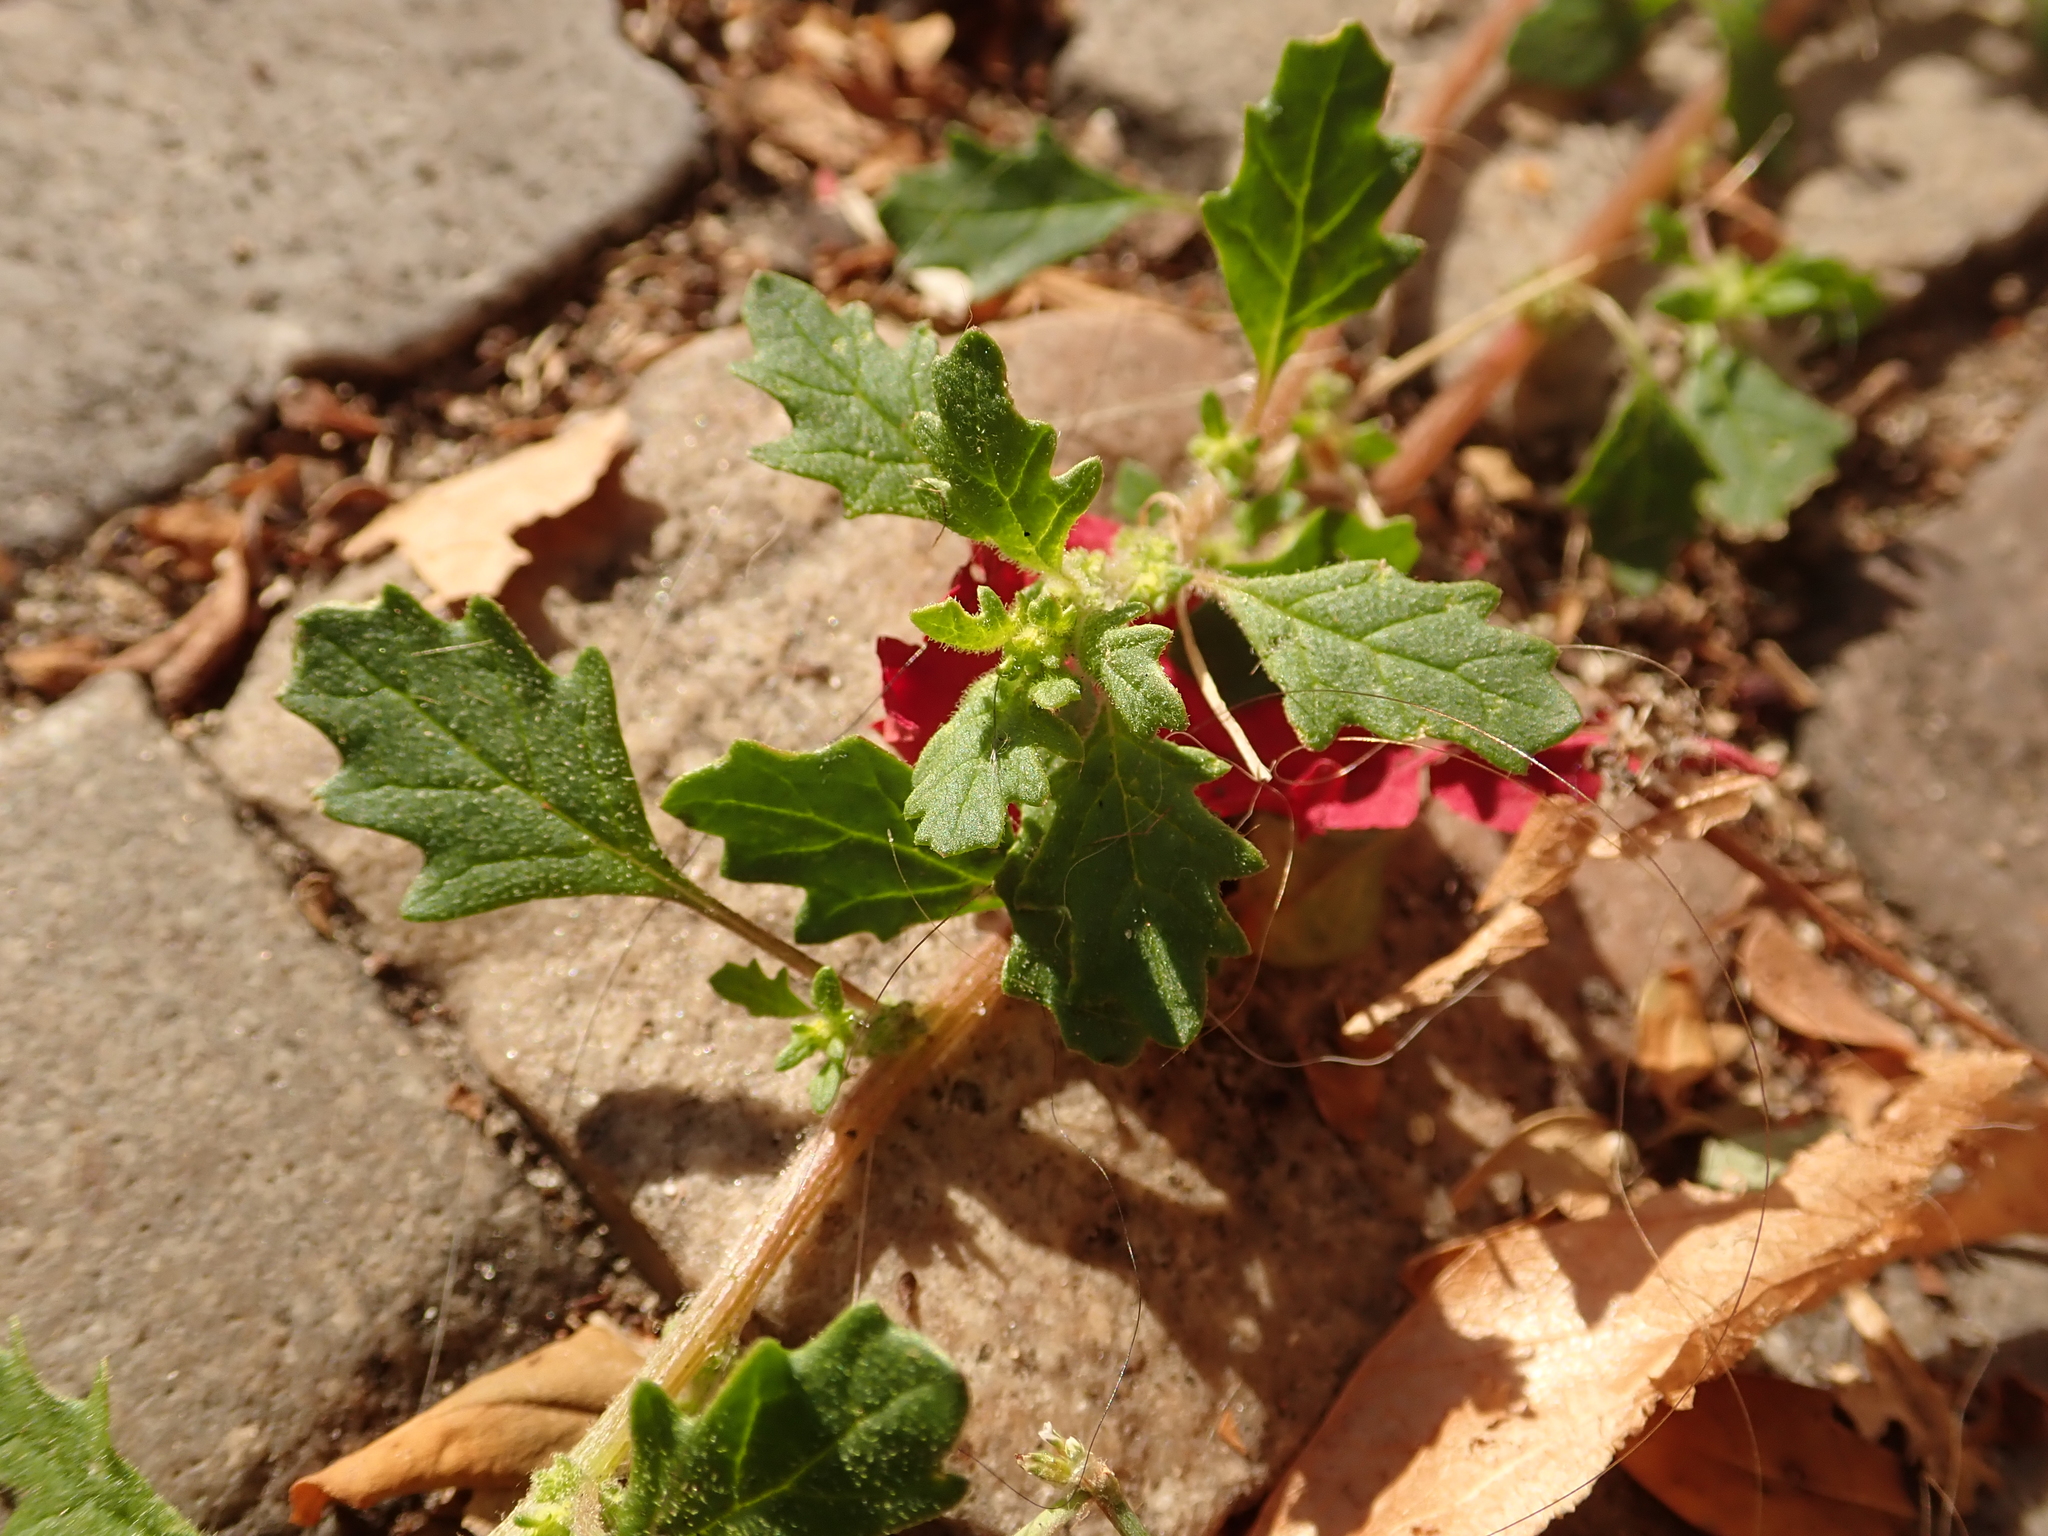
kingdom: Plantae
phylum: Tracheophyta
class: Magnoliopsida
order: Caryophyllales
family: Amaranthaceae
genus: Dysphania
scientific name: Dysphania pumilio
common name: Clammy goosefoot
